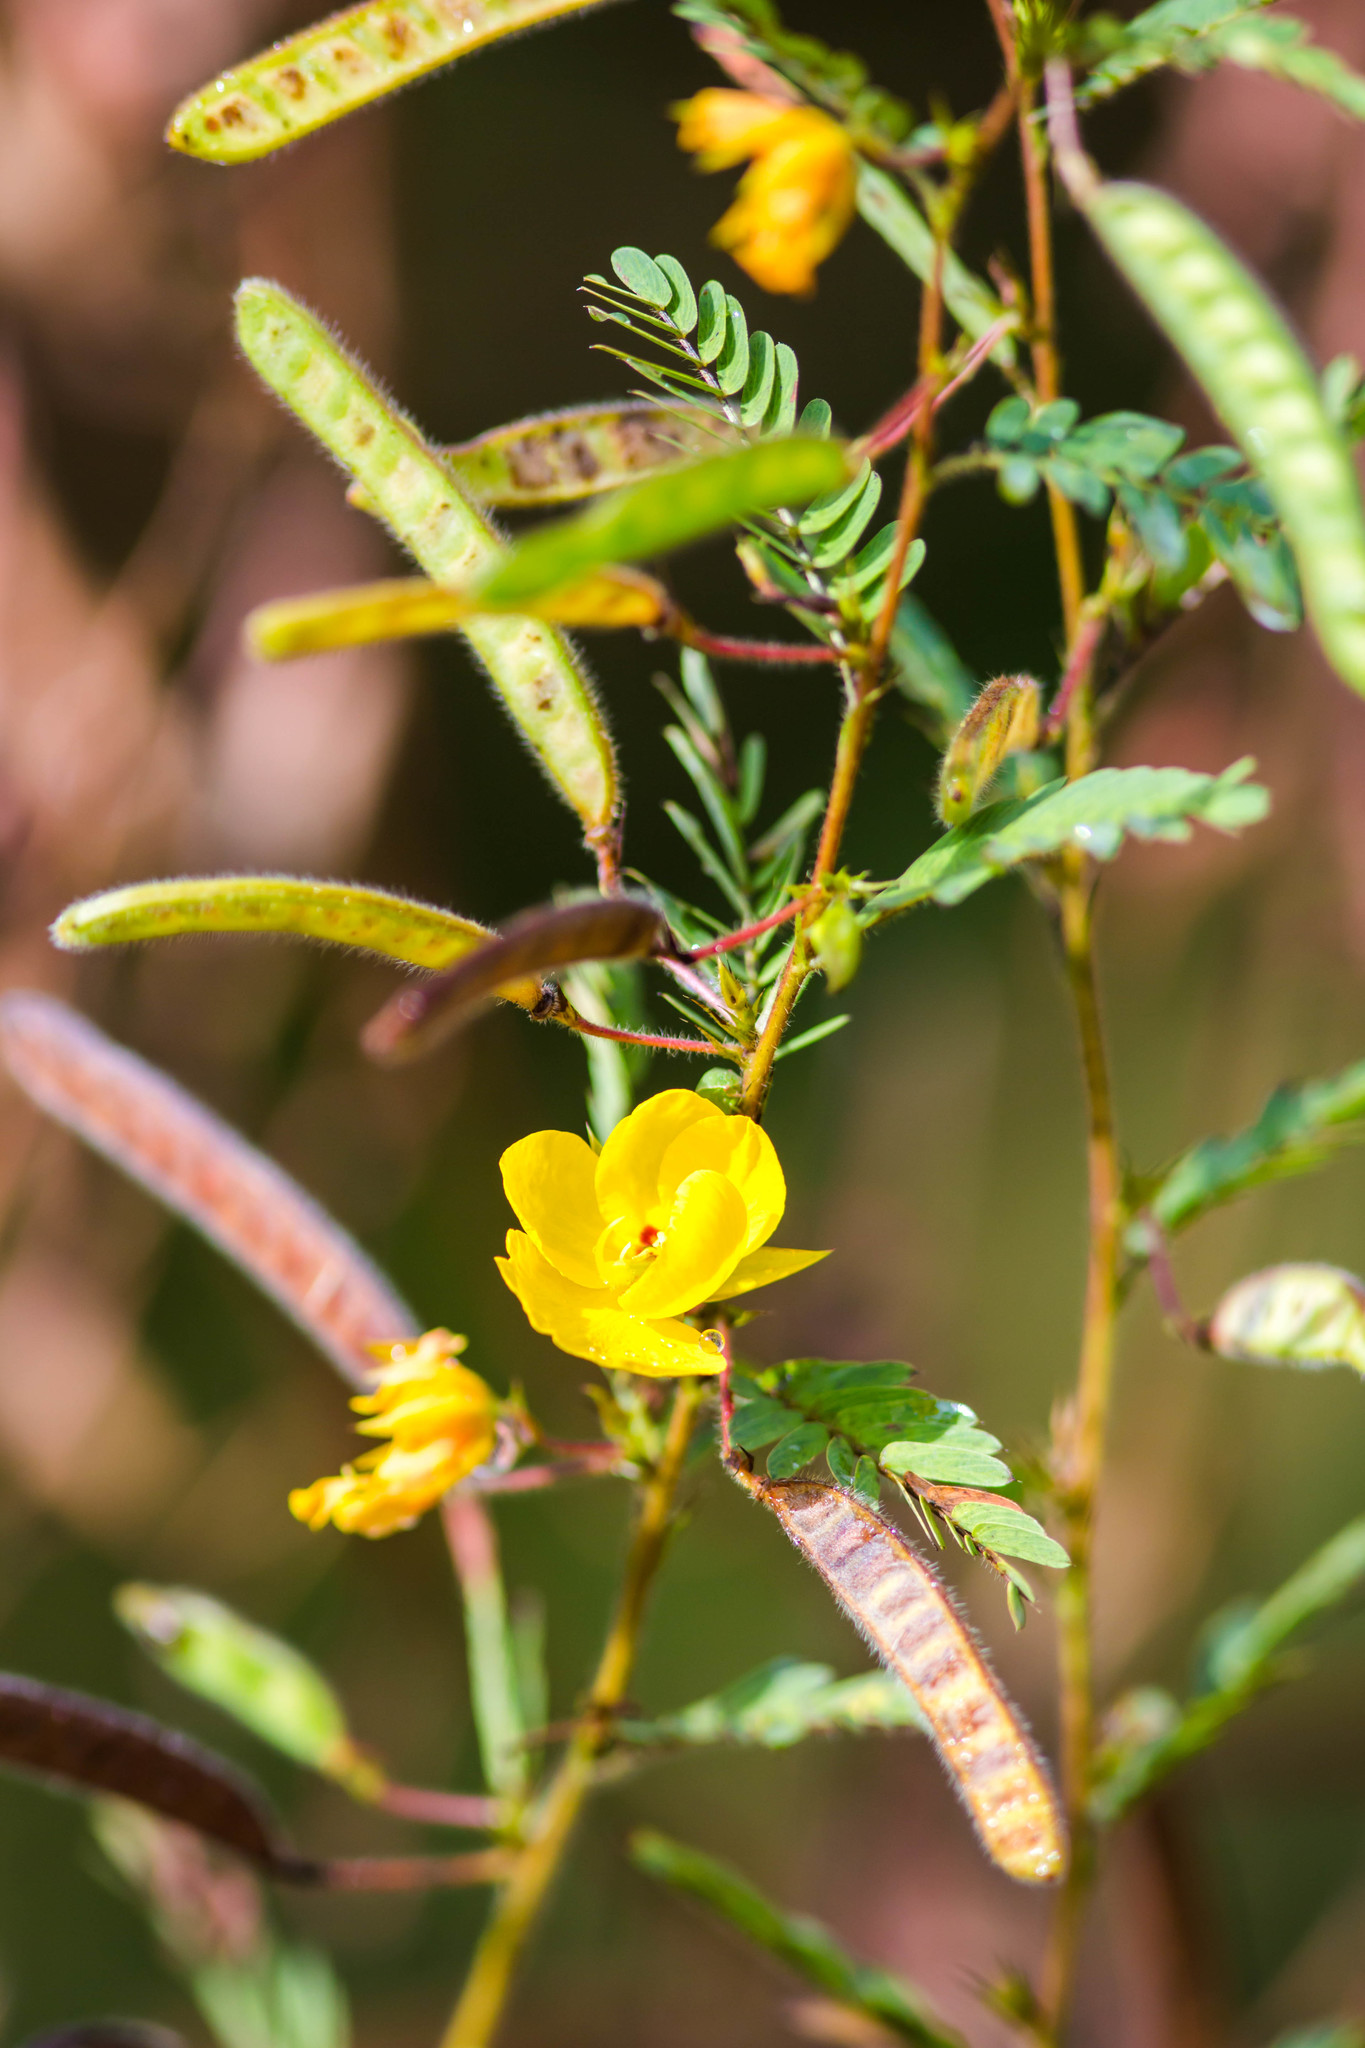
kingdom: Plantae
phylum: Tracheophyta
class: Magnoliopsida
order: Fabales
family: Fabaceae
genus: Chamaecrista
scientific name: Chamaecrista fasciculata
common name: Golden cassia
